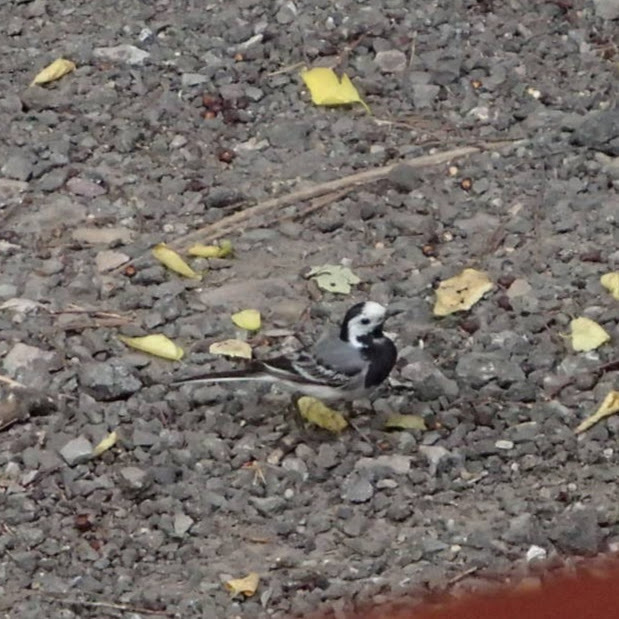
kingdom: Animalia
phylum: Chordata
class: Aves
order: Passeriformes
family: Motacillidae
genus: Motacilla
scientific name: Motacilla alba
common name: White wagtail
